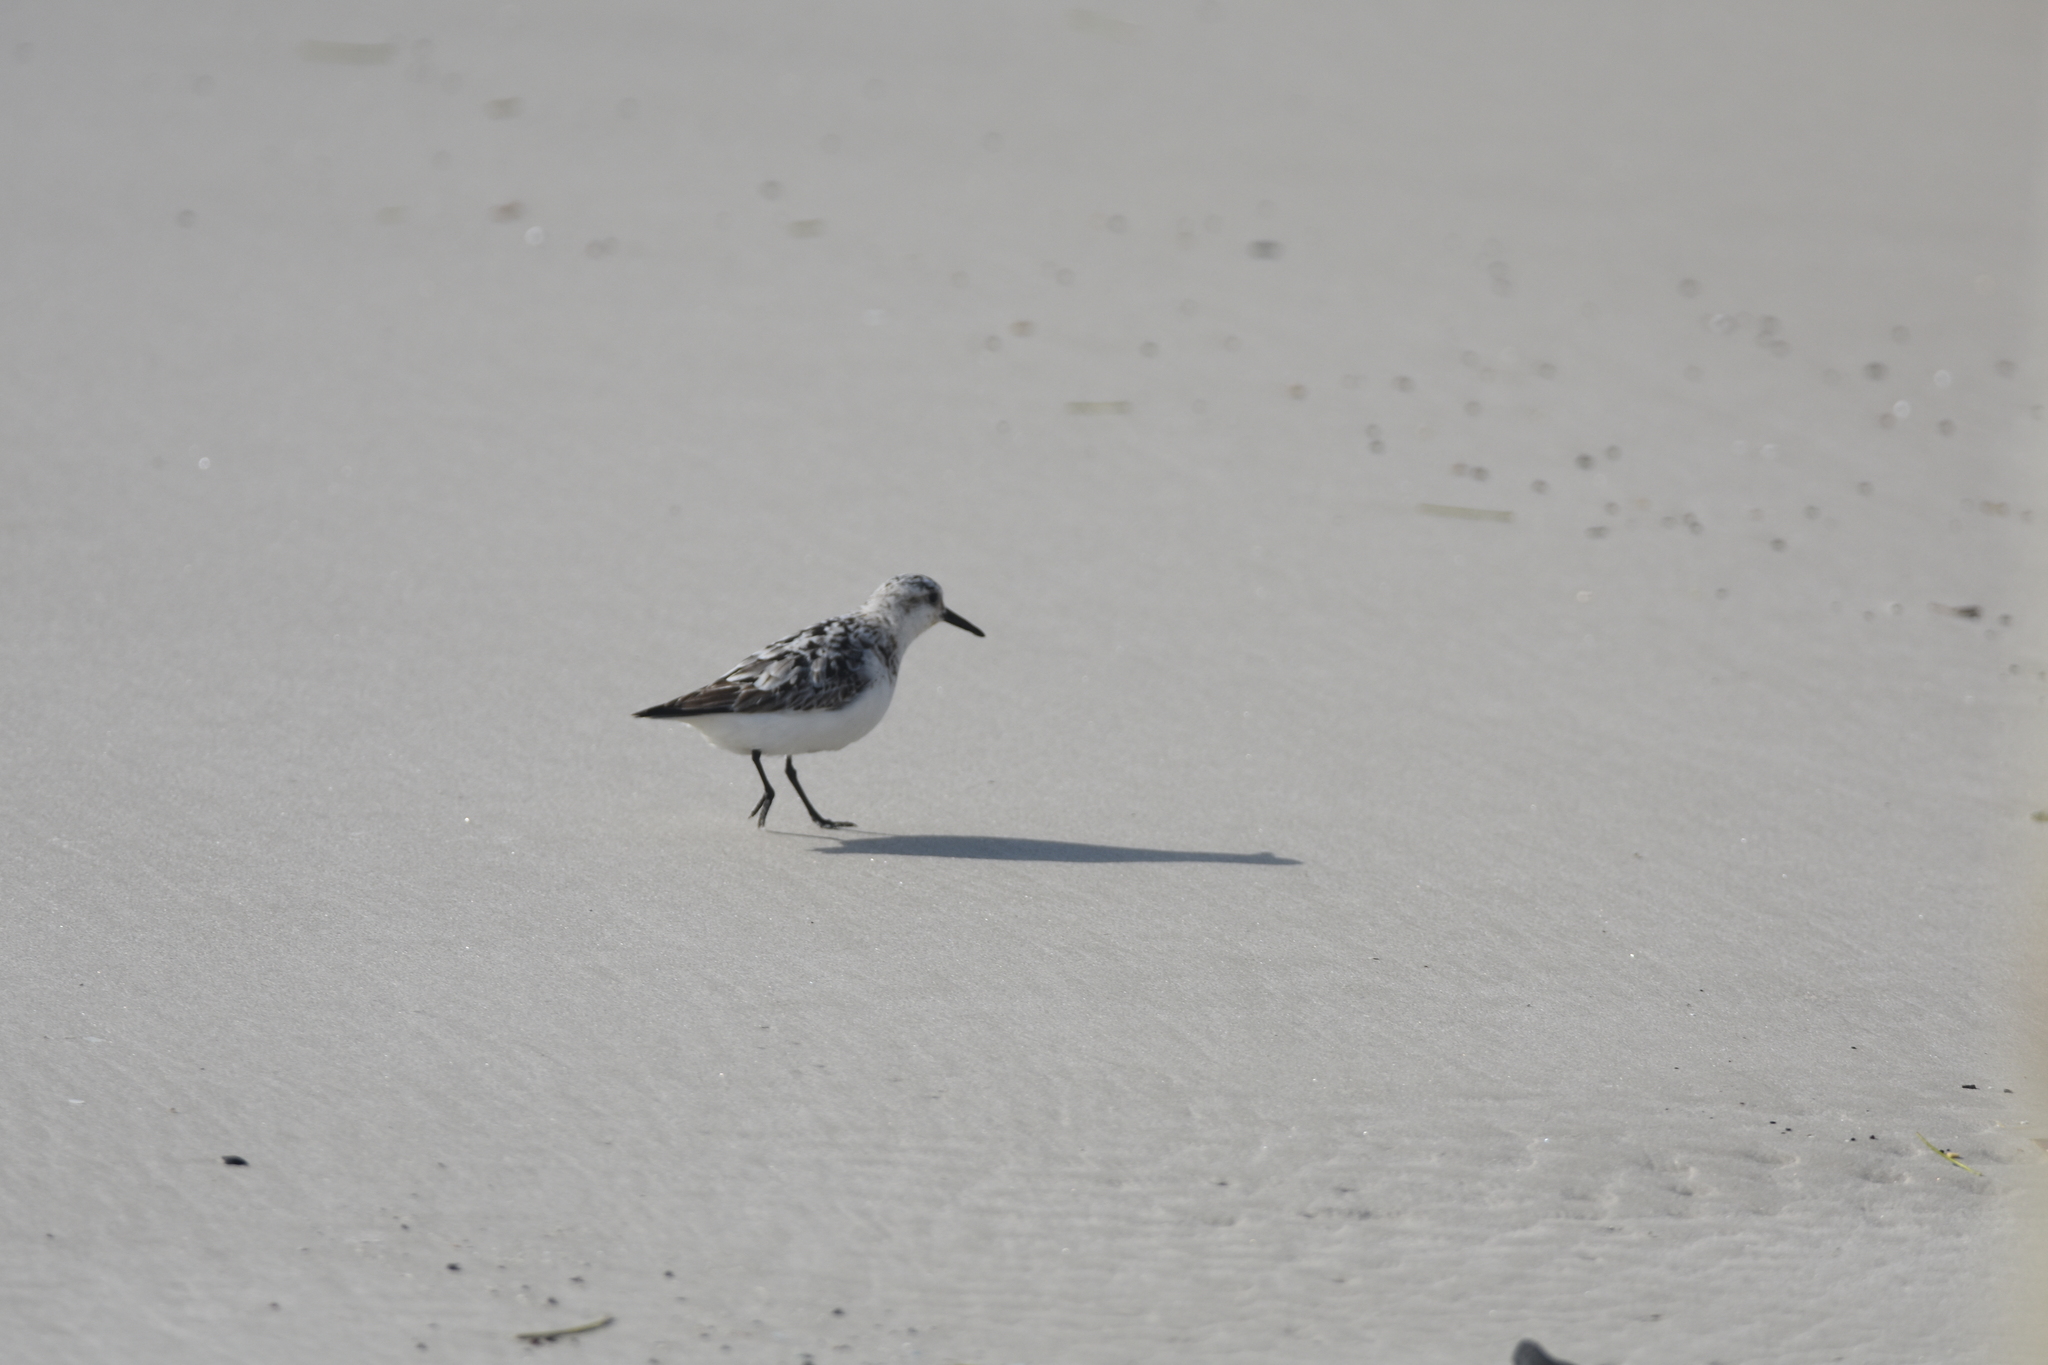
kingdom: Animalia
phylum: Chordata
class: Aves
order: Charadriiformes
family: Scolopacidae
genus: Calidris
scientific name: Calidris alba
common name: Sanderling
